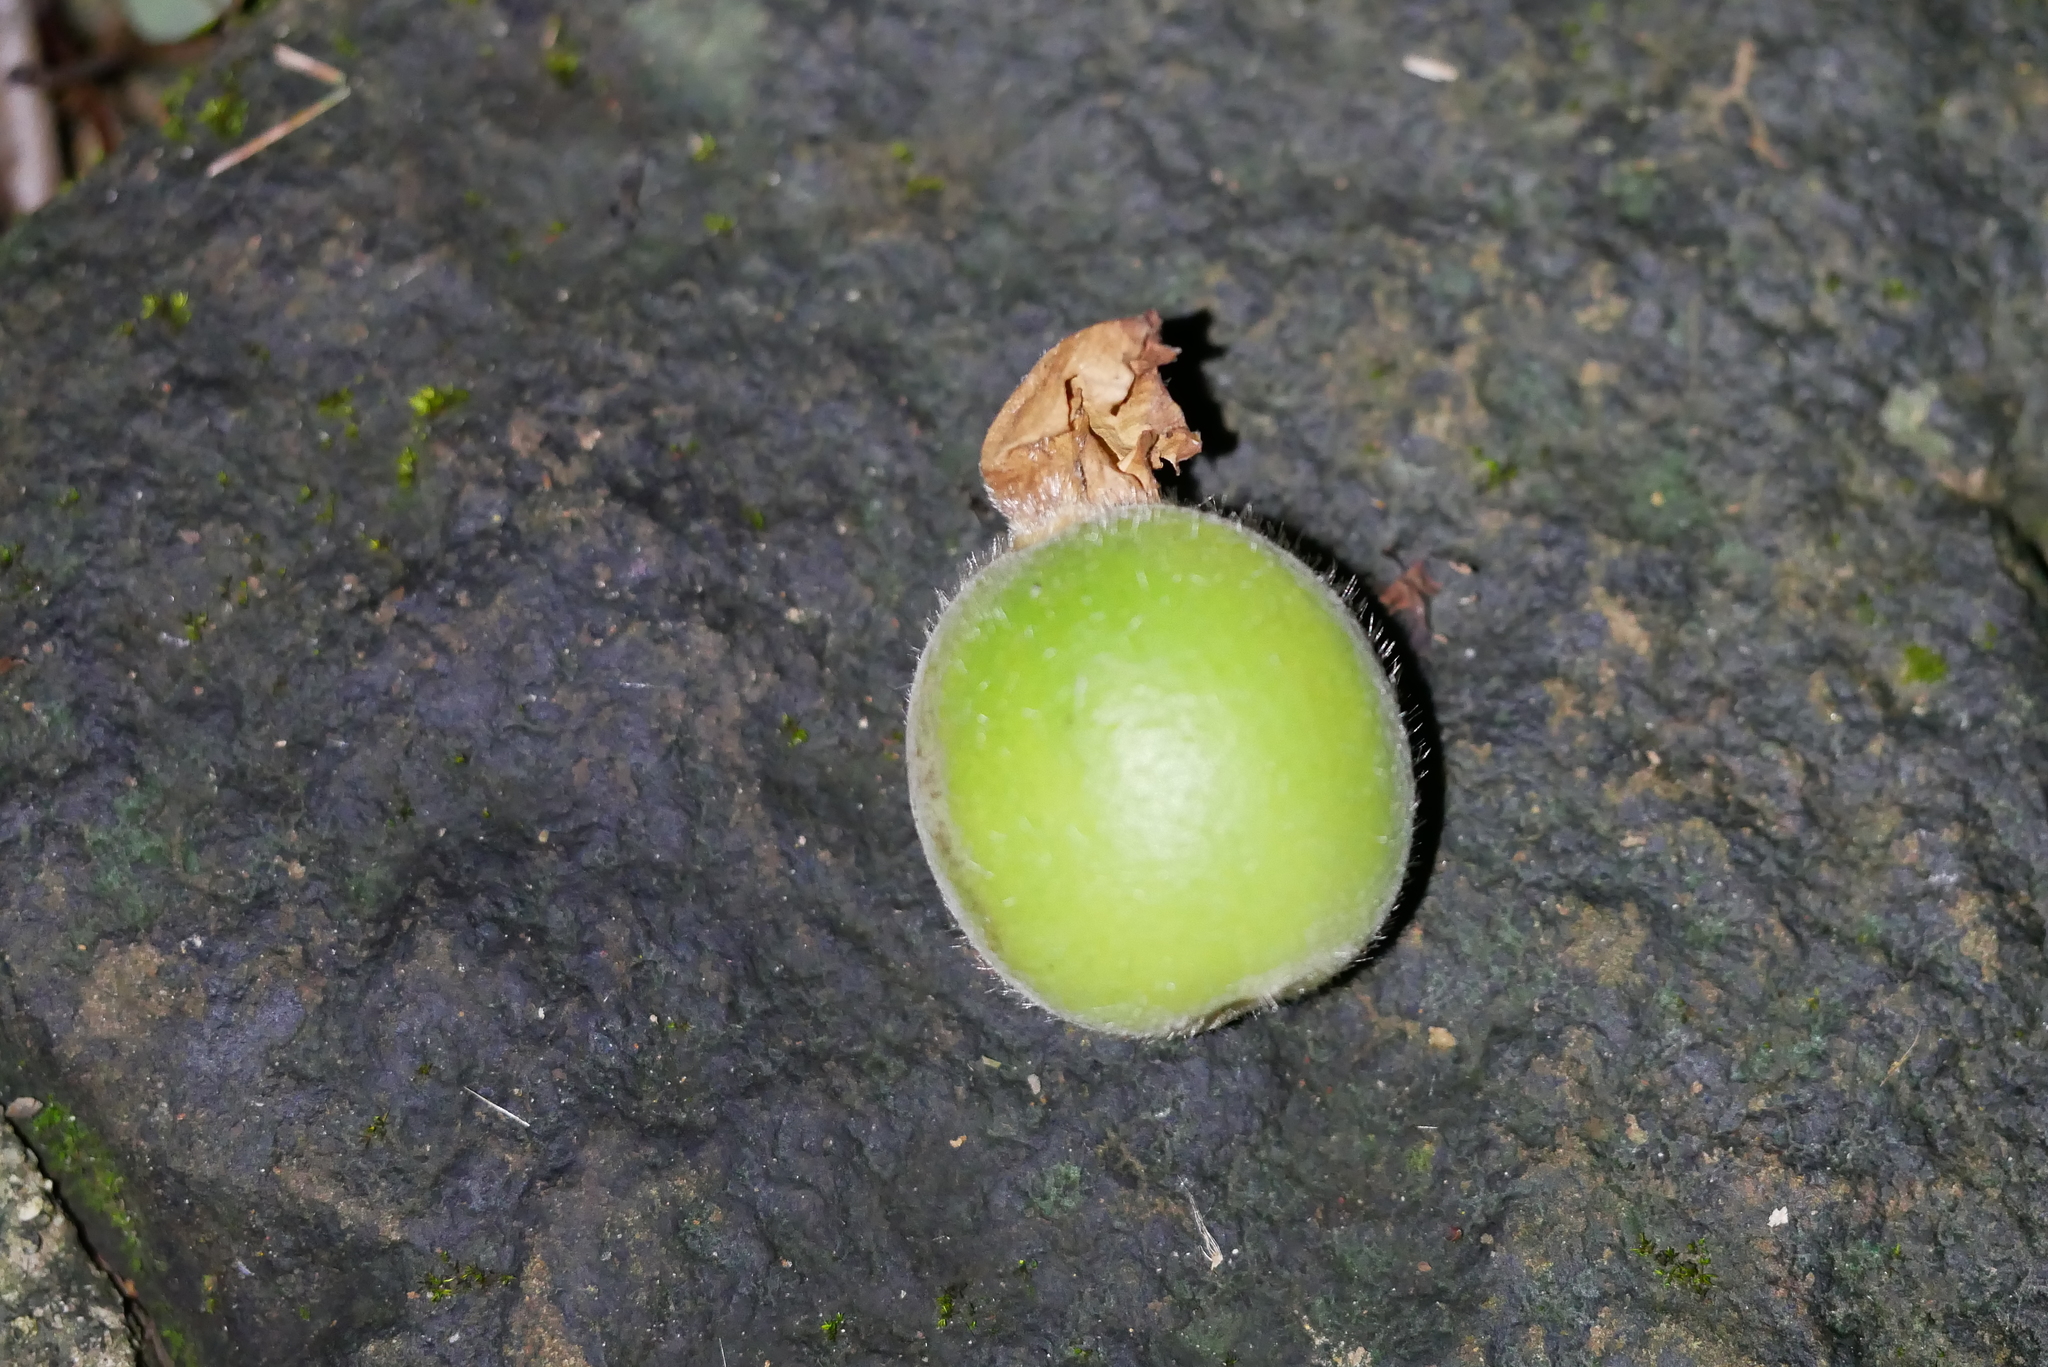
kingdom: Plantae
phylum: Tracheophyta
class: Liliopsida
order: Zingiberales
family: Zingiberaceae
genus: Alpinia
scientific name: Alpinia uraiensis
